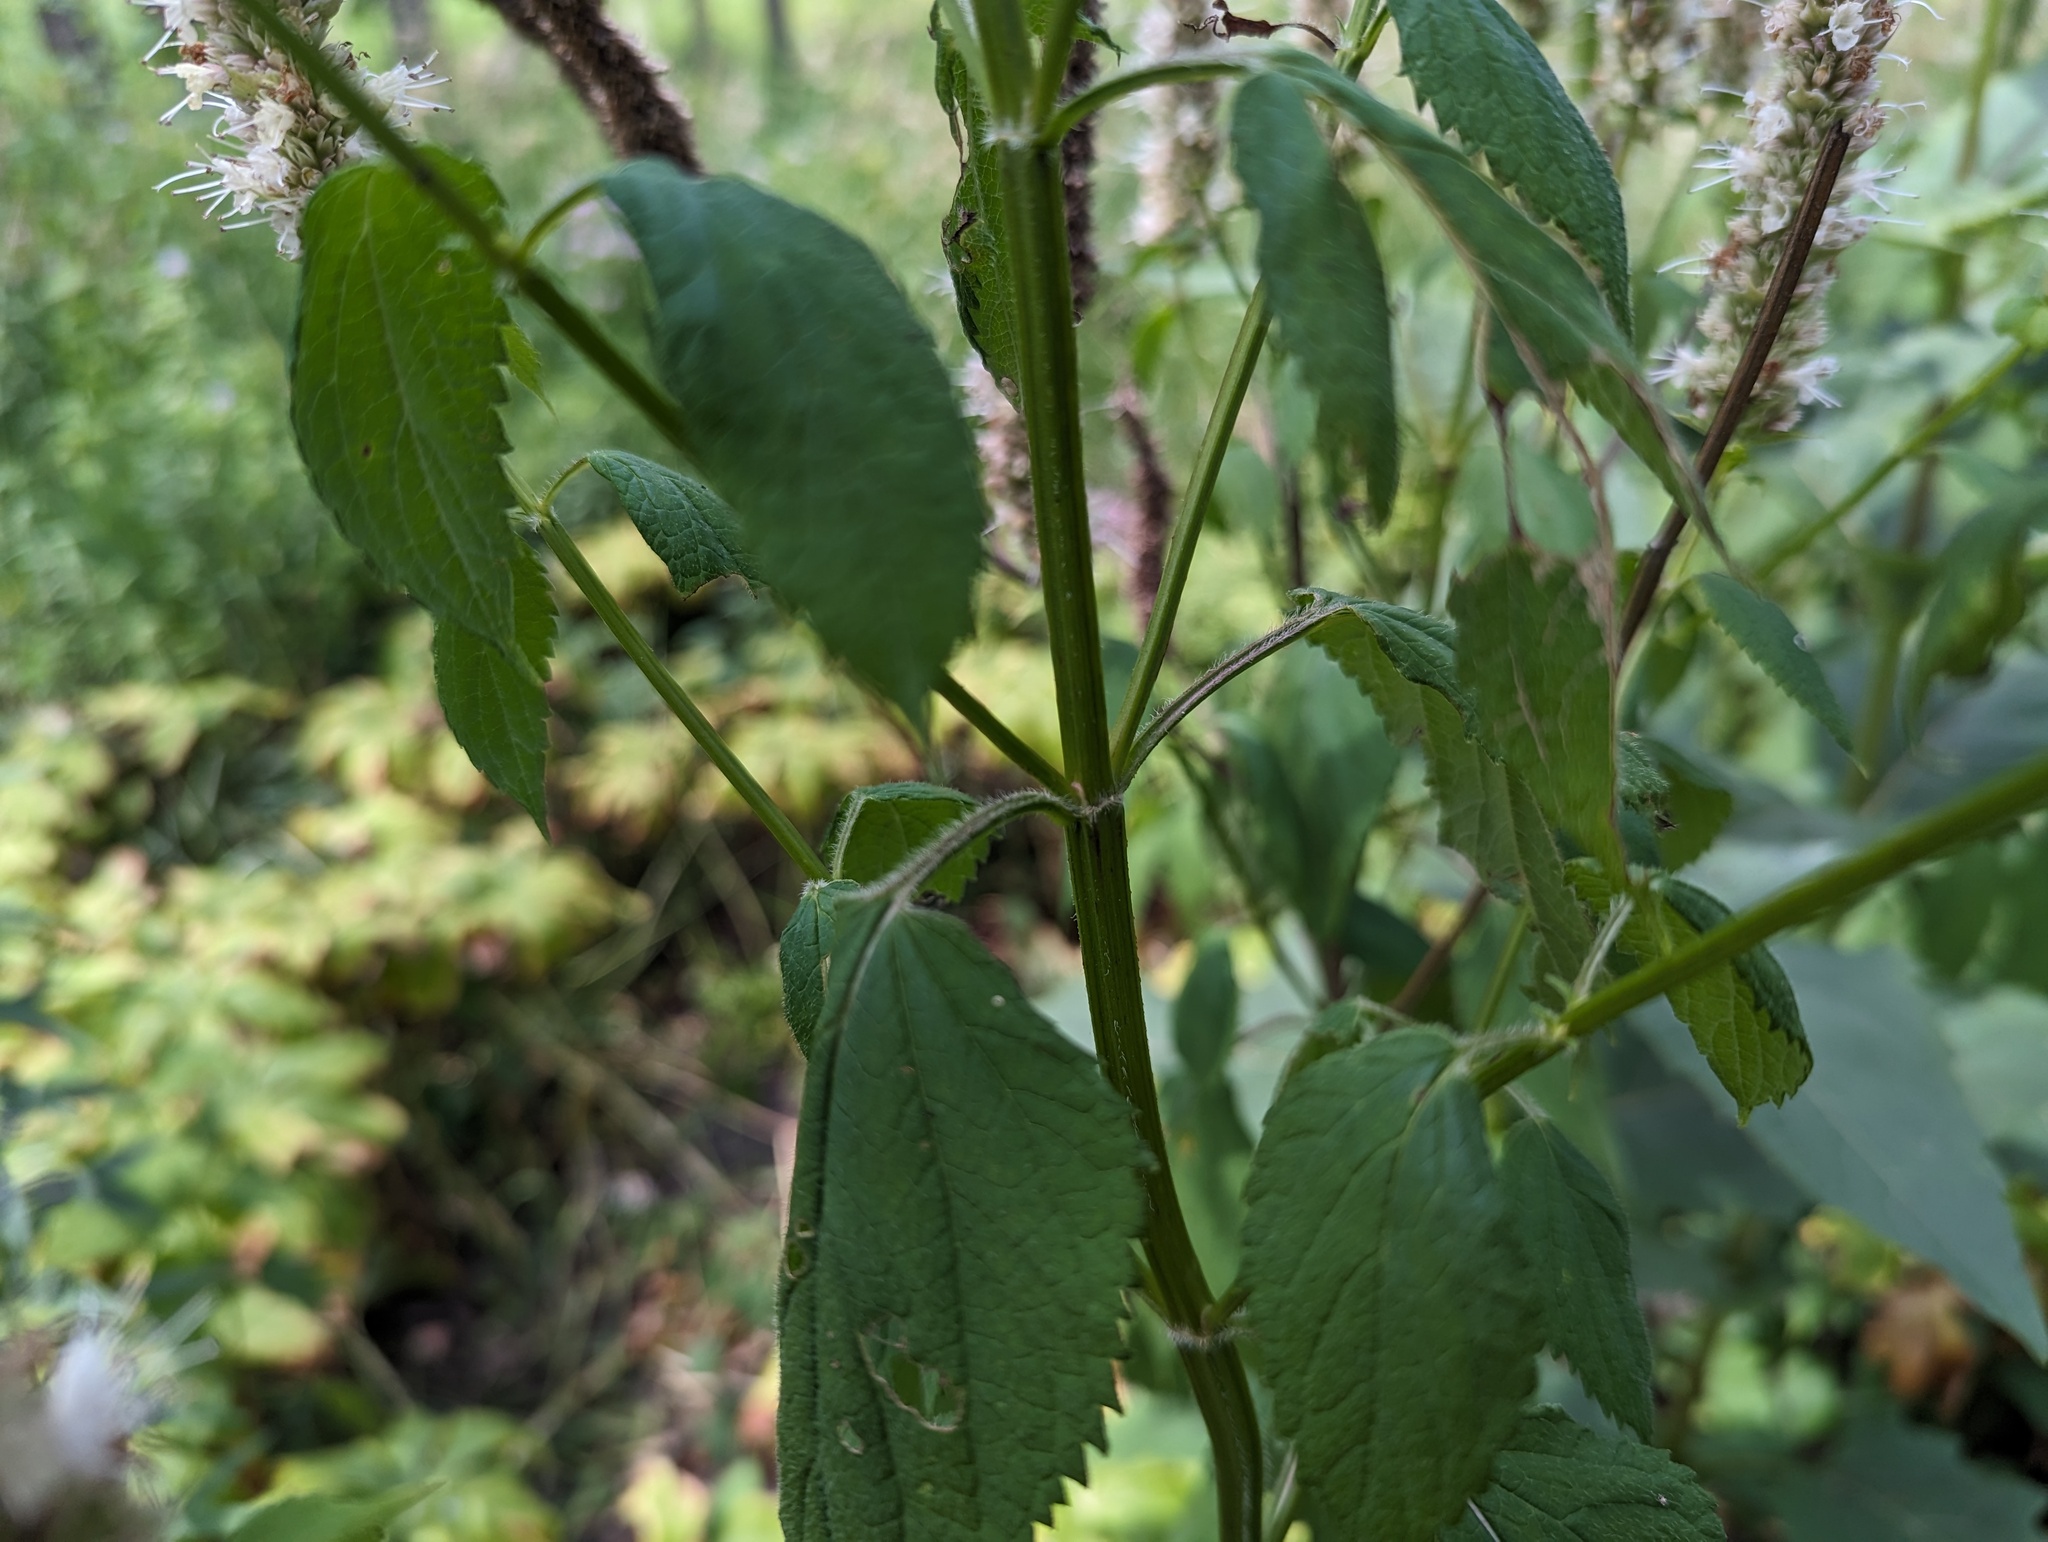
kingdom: Plantae
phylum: Tracheophyta
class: Magnoliopsida
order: Lamiales
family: Lamiaceae
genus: Agastache
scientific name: Agastache scrophulariifolia
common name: Figwort giant hyssop
